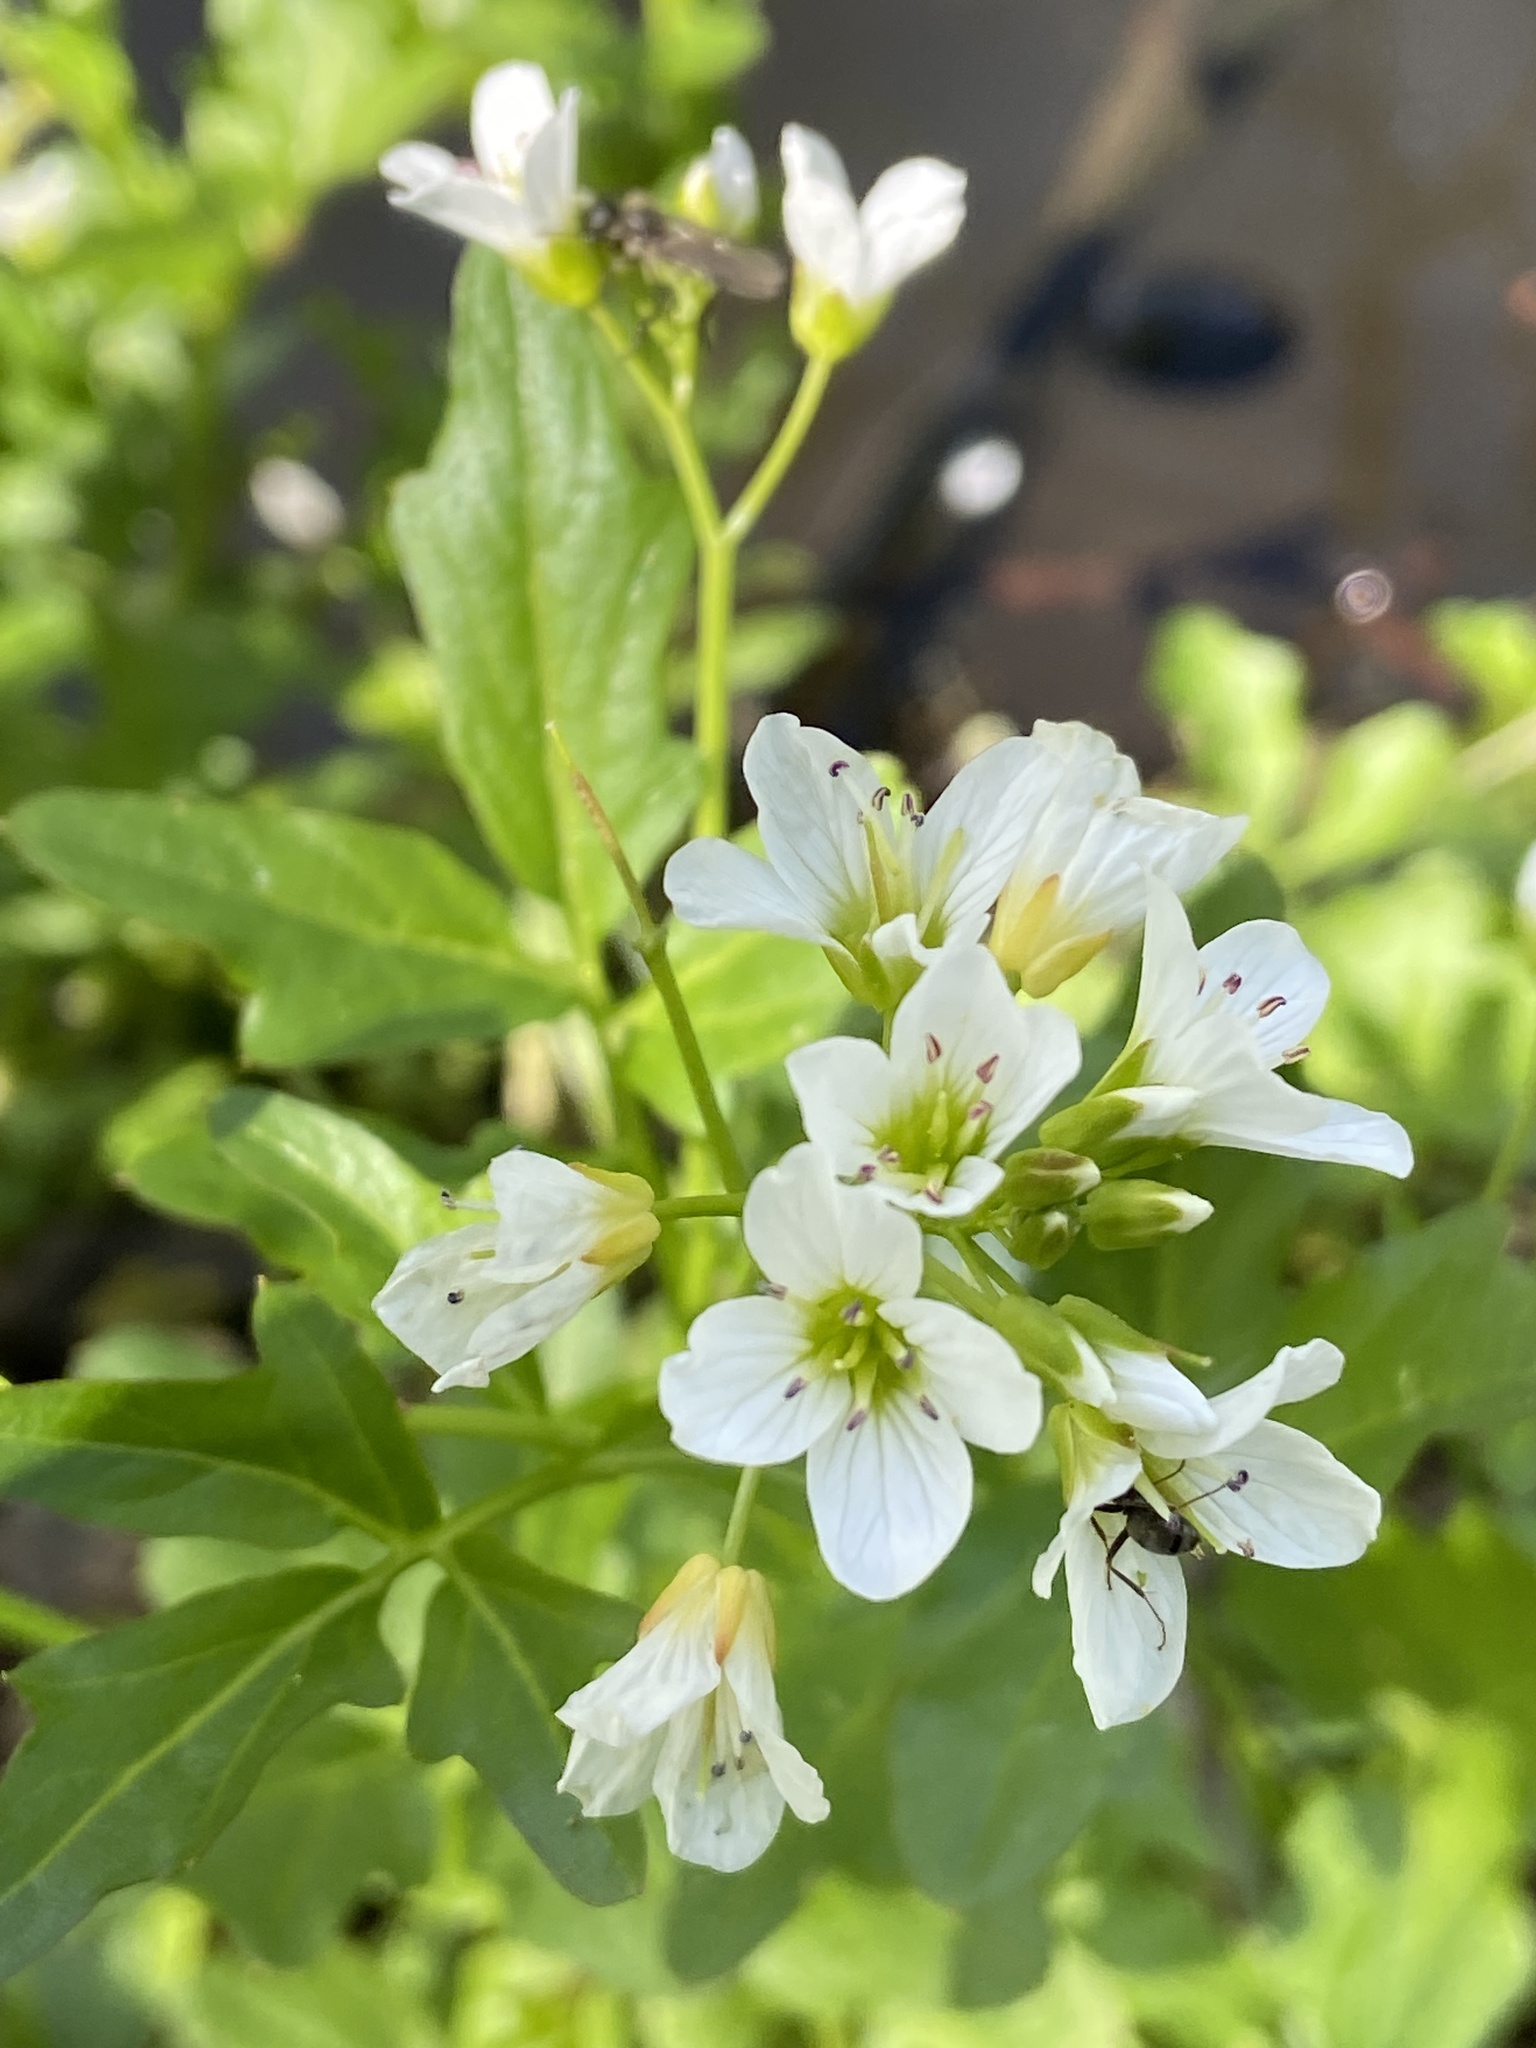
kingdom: Plantae
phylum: Tracheophyta
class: Magnoliopsida
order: Brassicales
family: Brassicaceae
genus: Cardamine
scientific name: Cardamine amara
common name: Large bitter-cress
